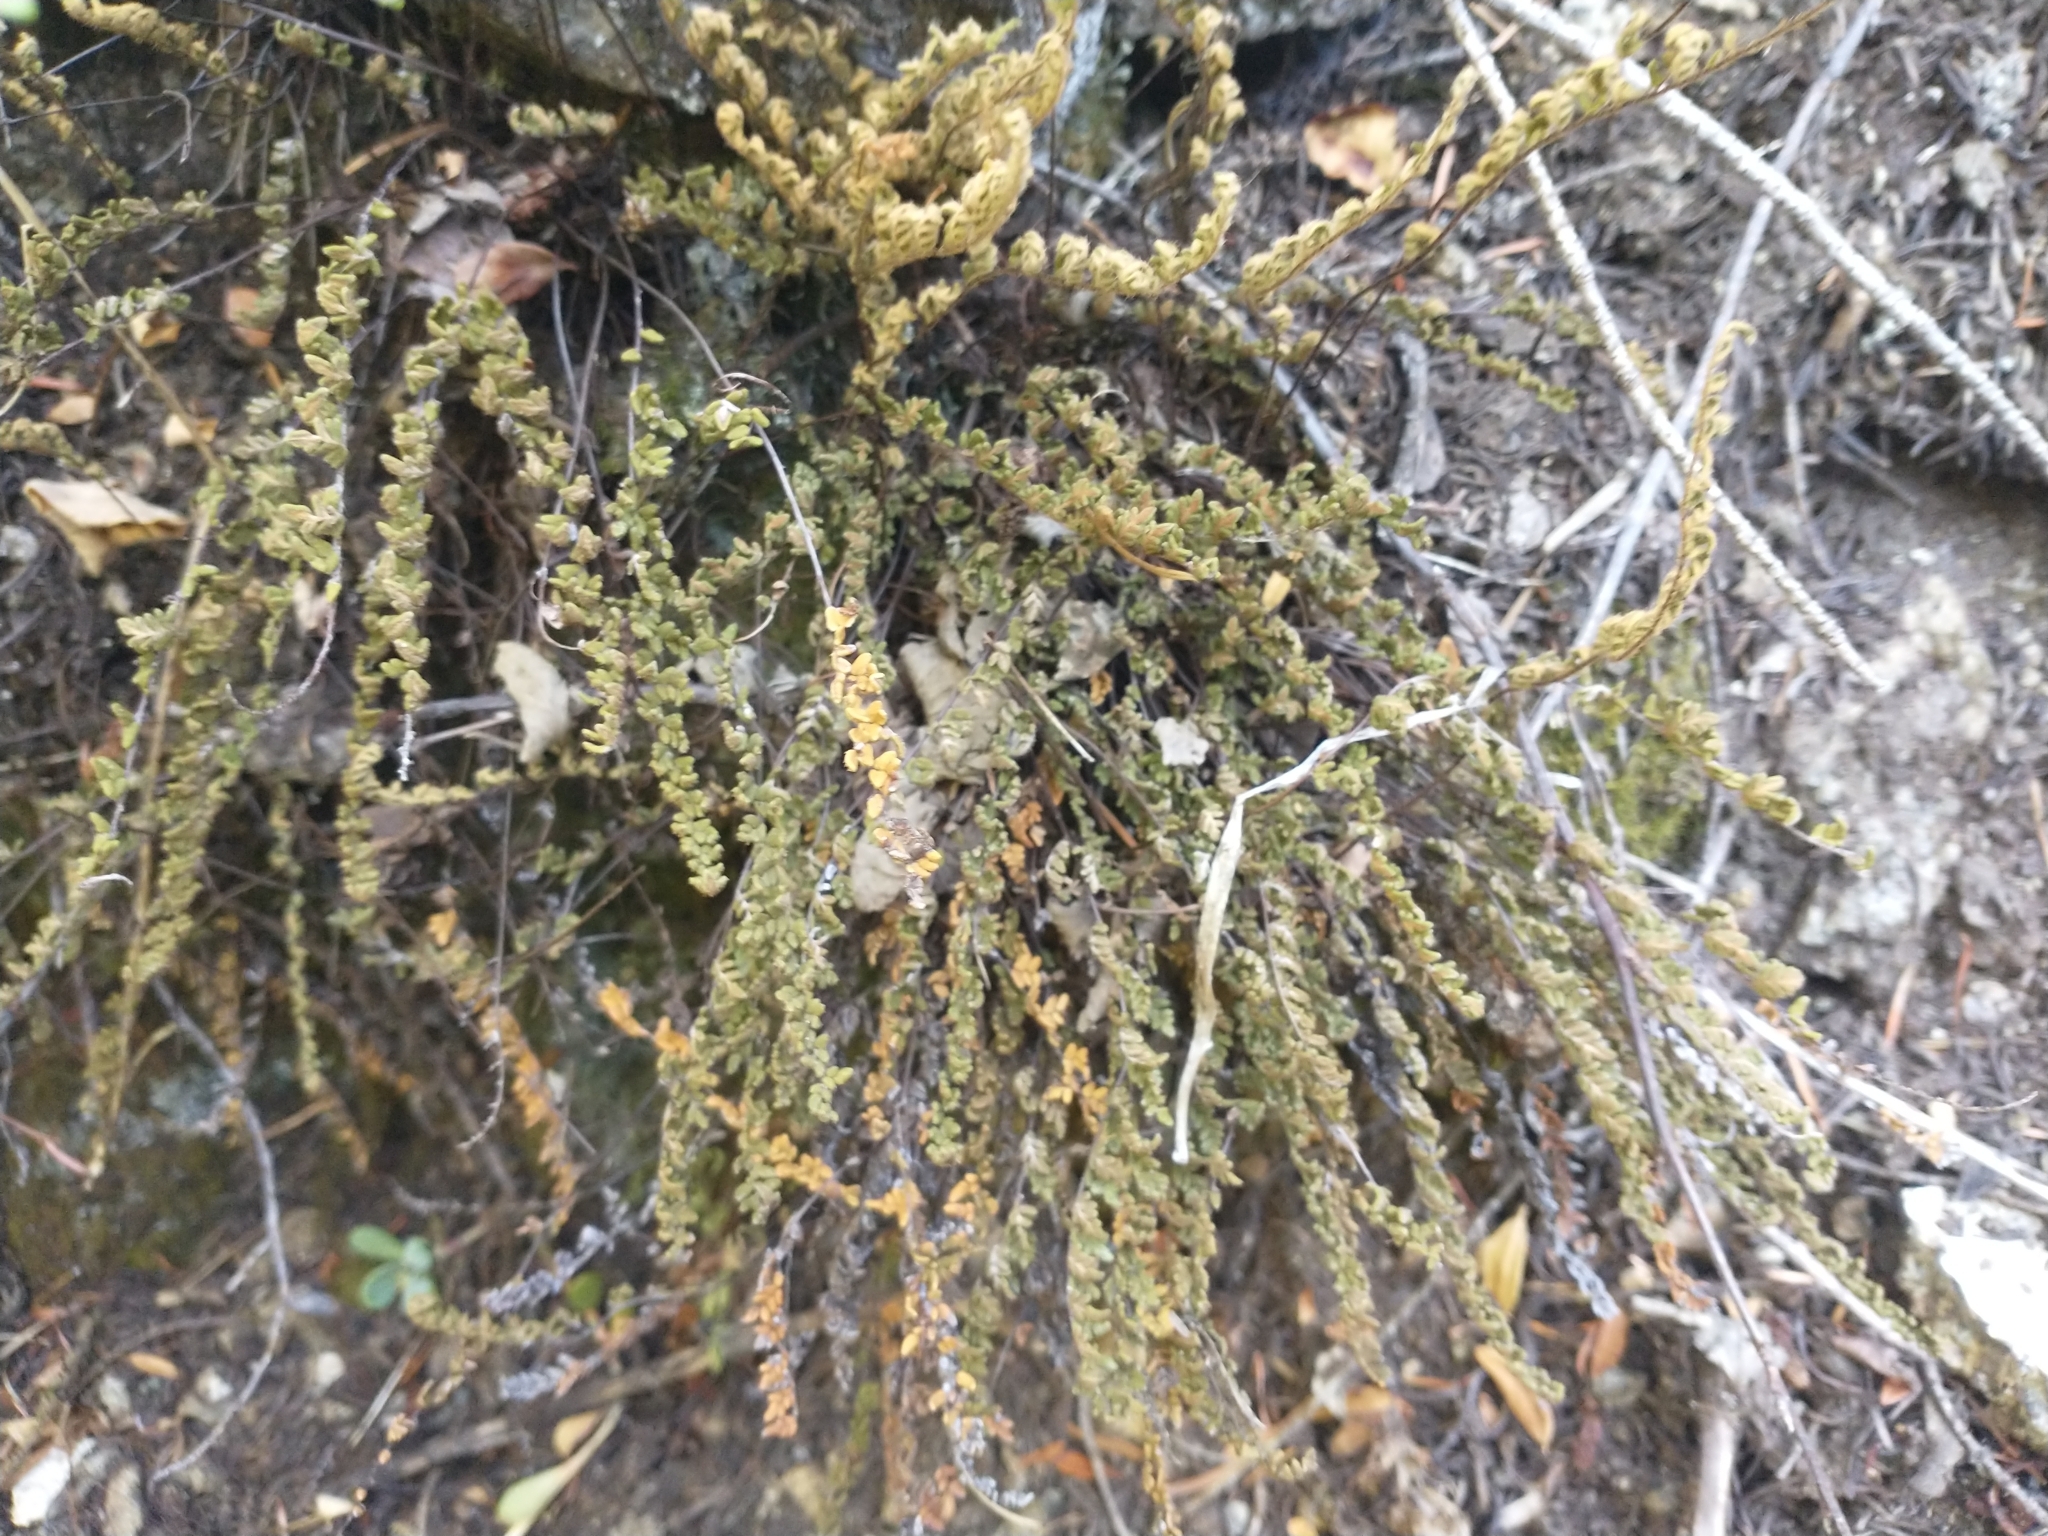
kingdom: Plantae
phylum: Tracheophyta
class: Polypodiopsida
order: Polypodiales
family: Pteridaceae
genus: Myriopteris
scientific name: Myriopteris gracillima
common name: Lace fern
